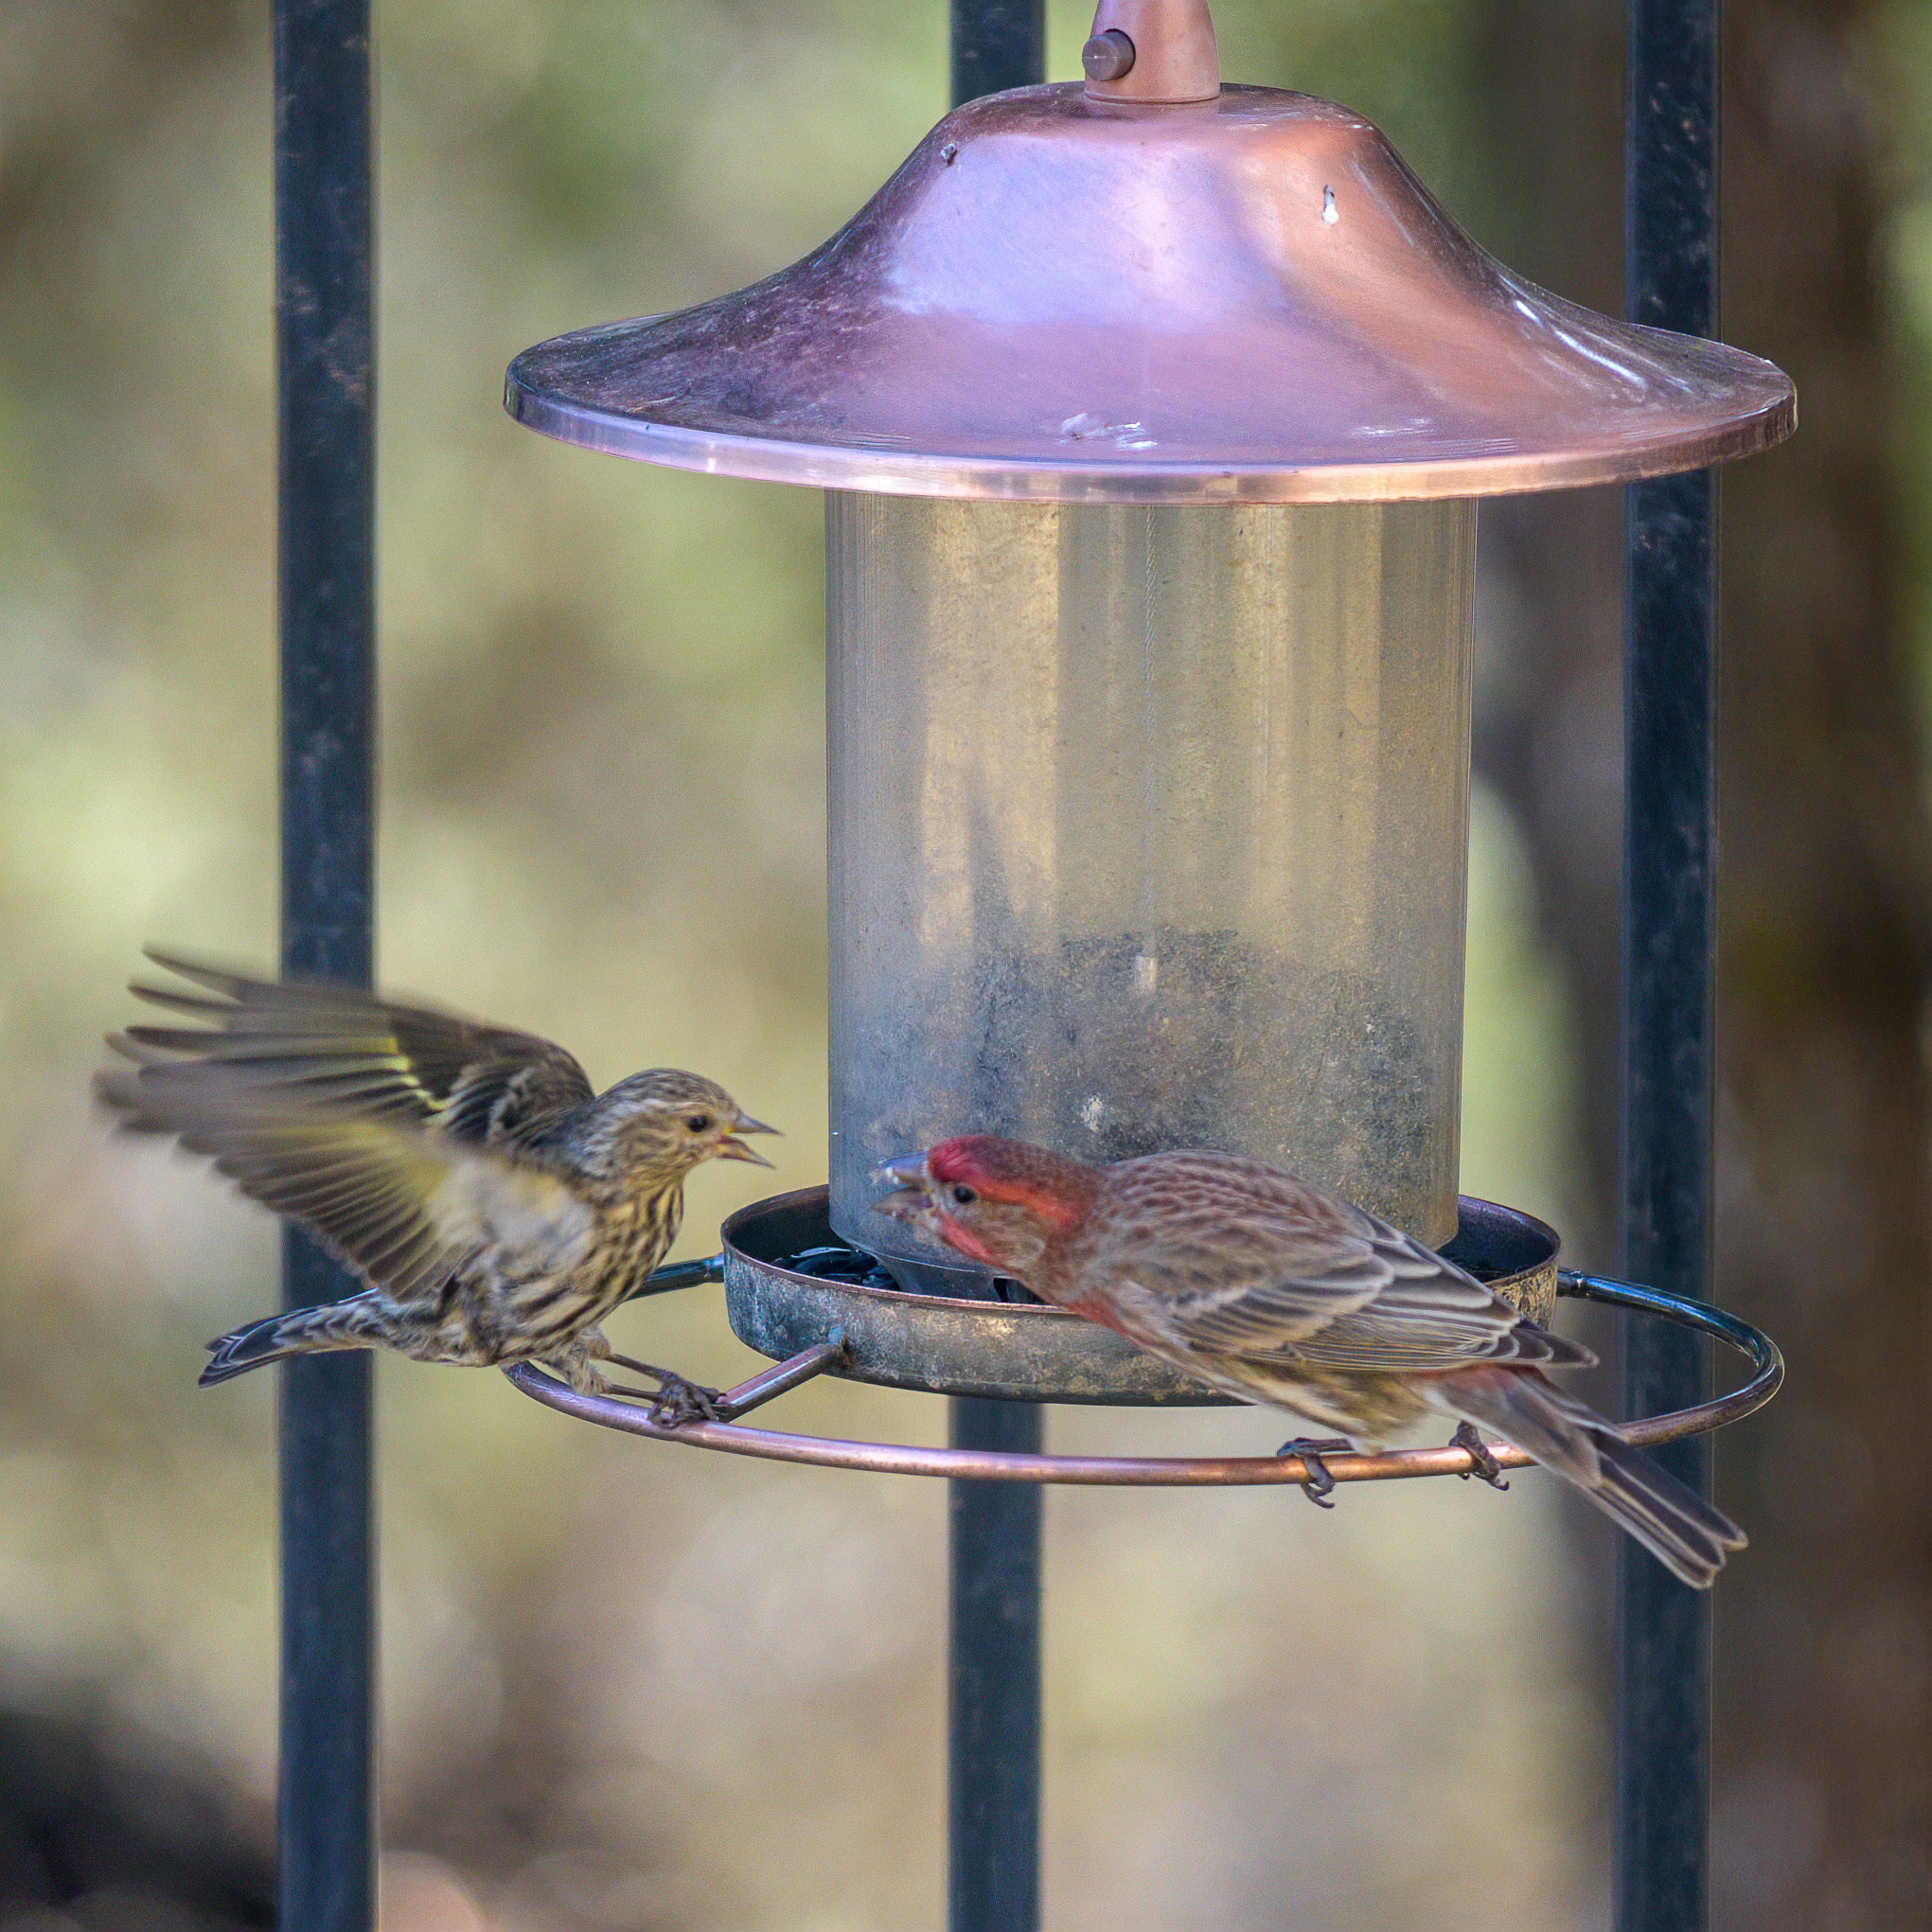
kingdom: Animalia
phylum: Chordata
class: Aves
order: Passeriformes
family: Fringillidae
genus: Spinus
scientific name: Spinus pinus
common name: Pine siskin
